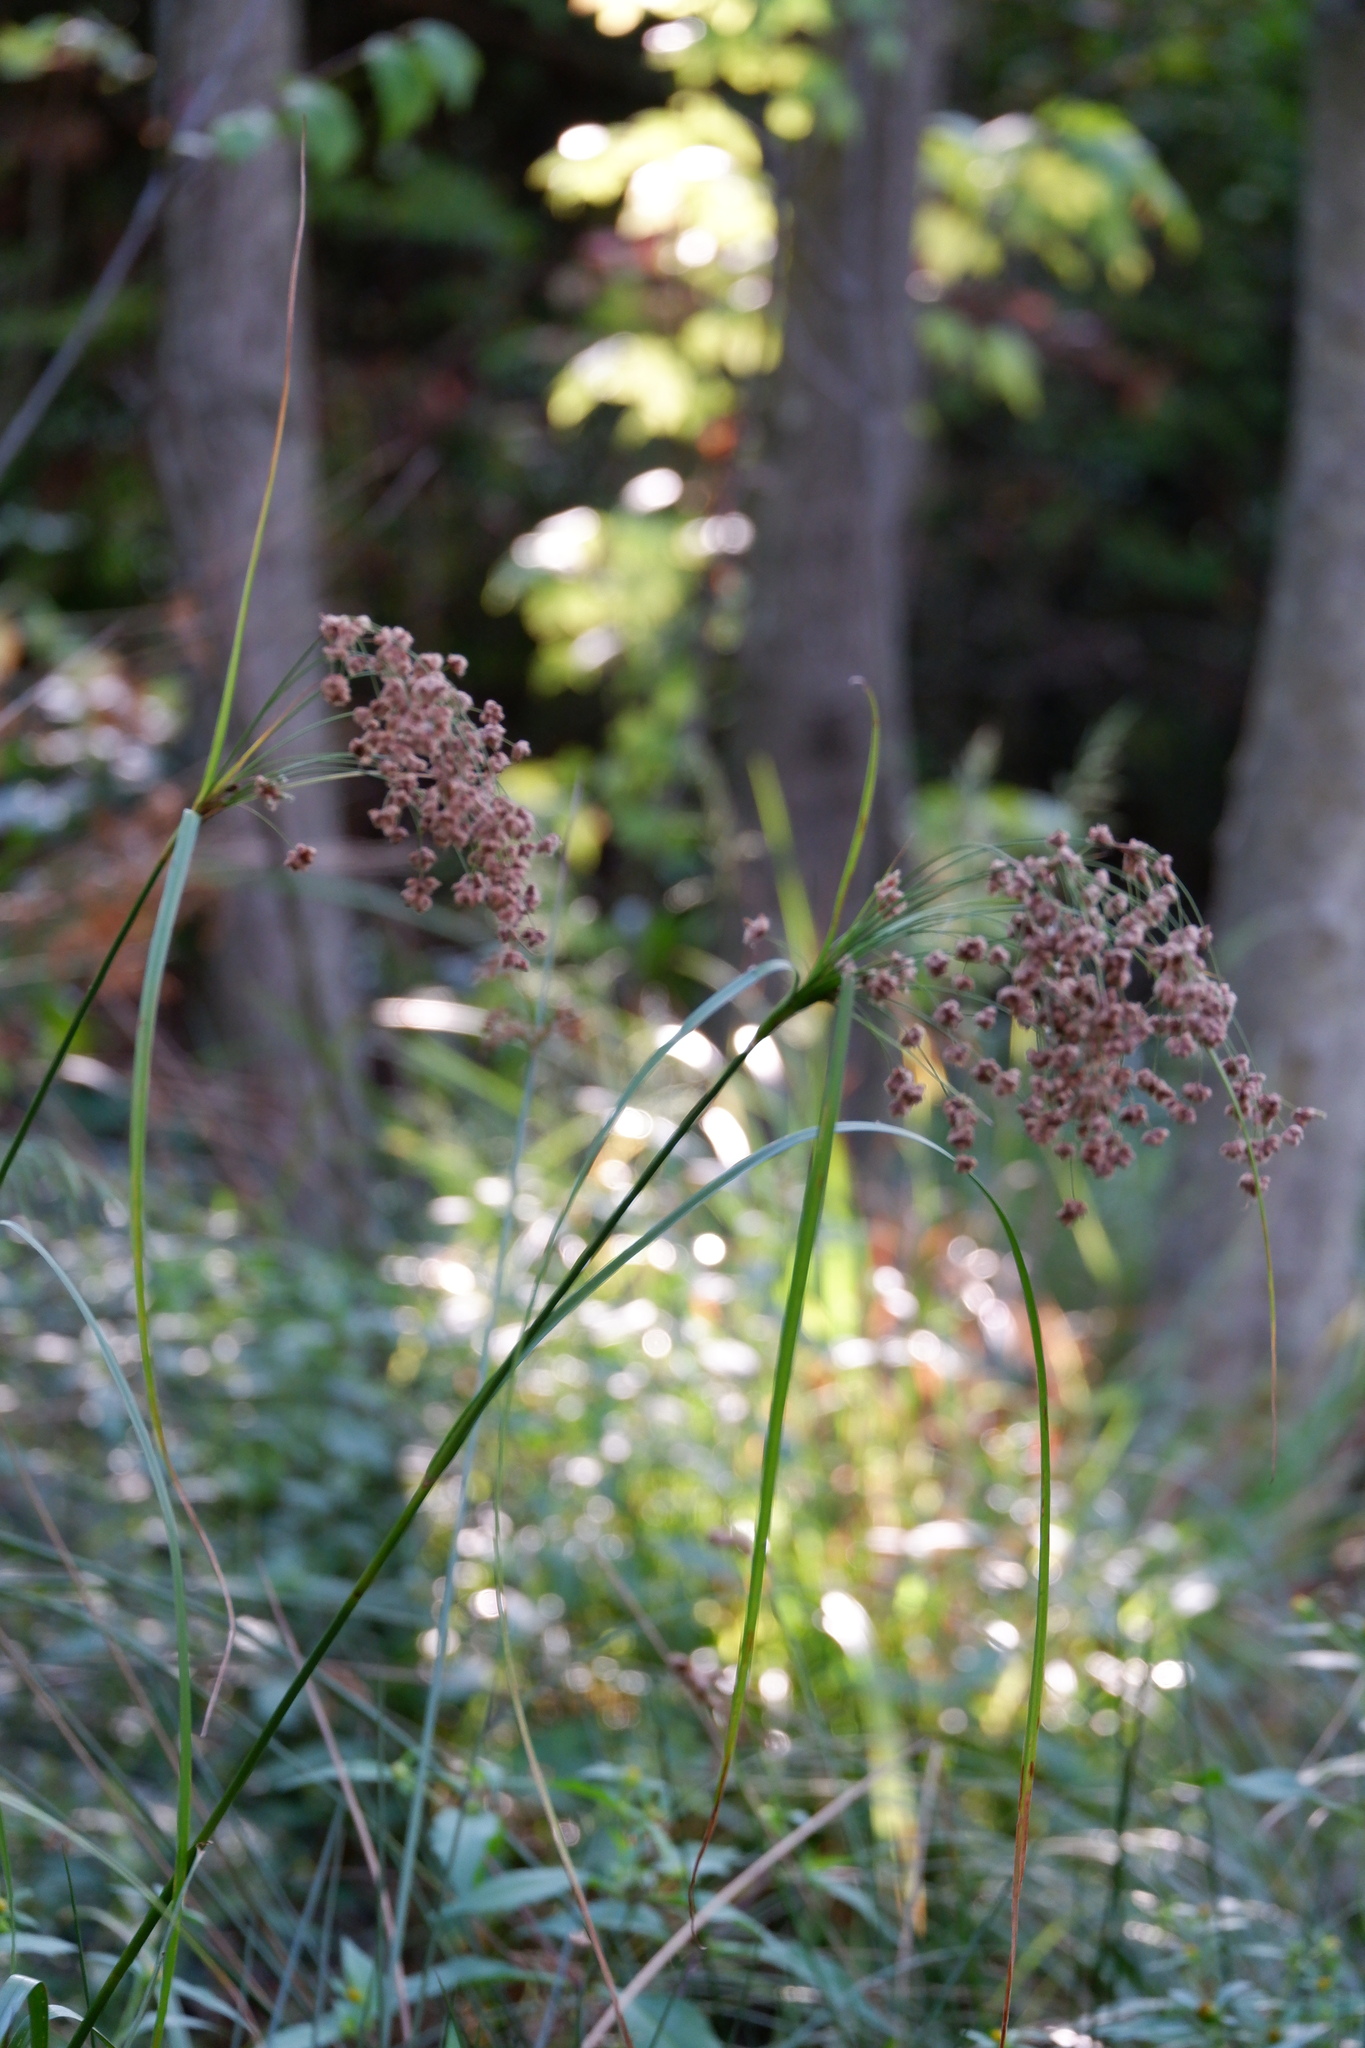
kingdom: Plantae
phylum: Tracheophyta
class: Liliopsida
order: Poales
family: Cyperaceae
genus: Scirpus
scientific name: Scirpus cyperinus
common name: Black-sheathed bulrush
